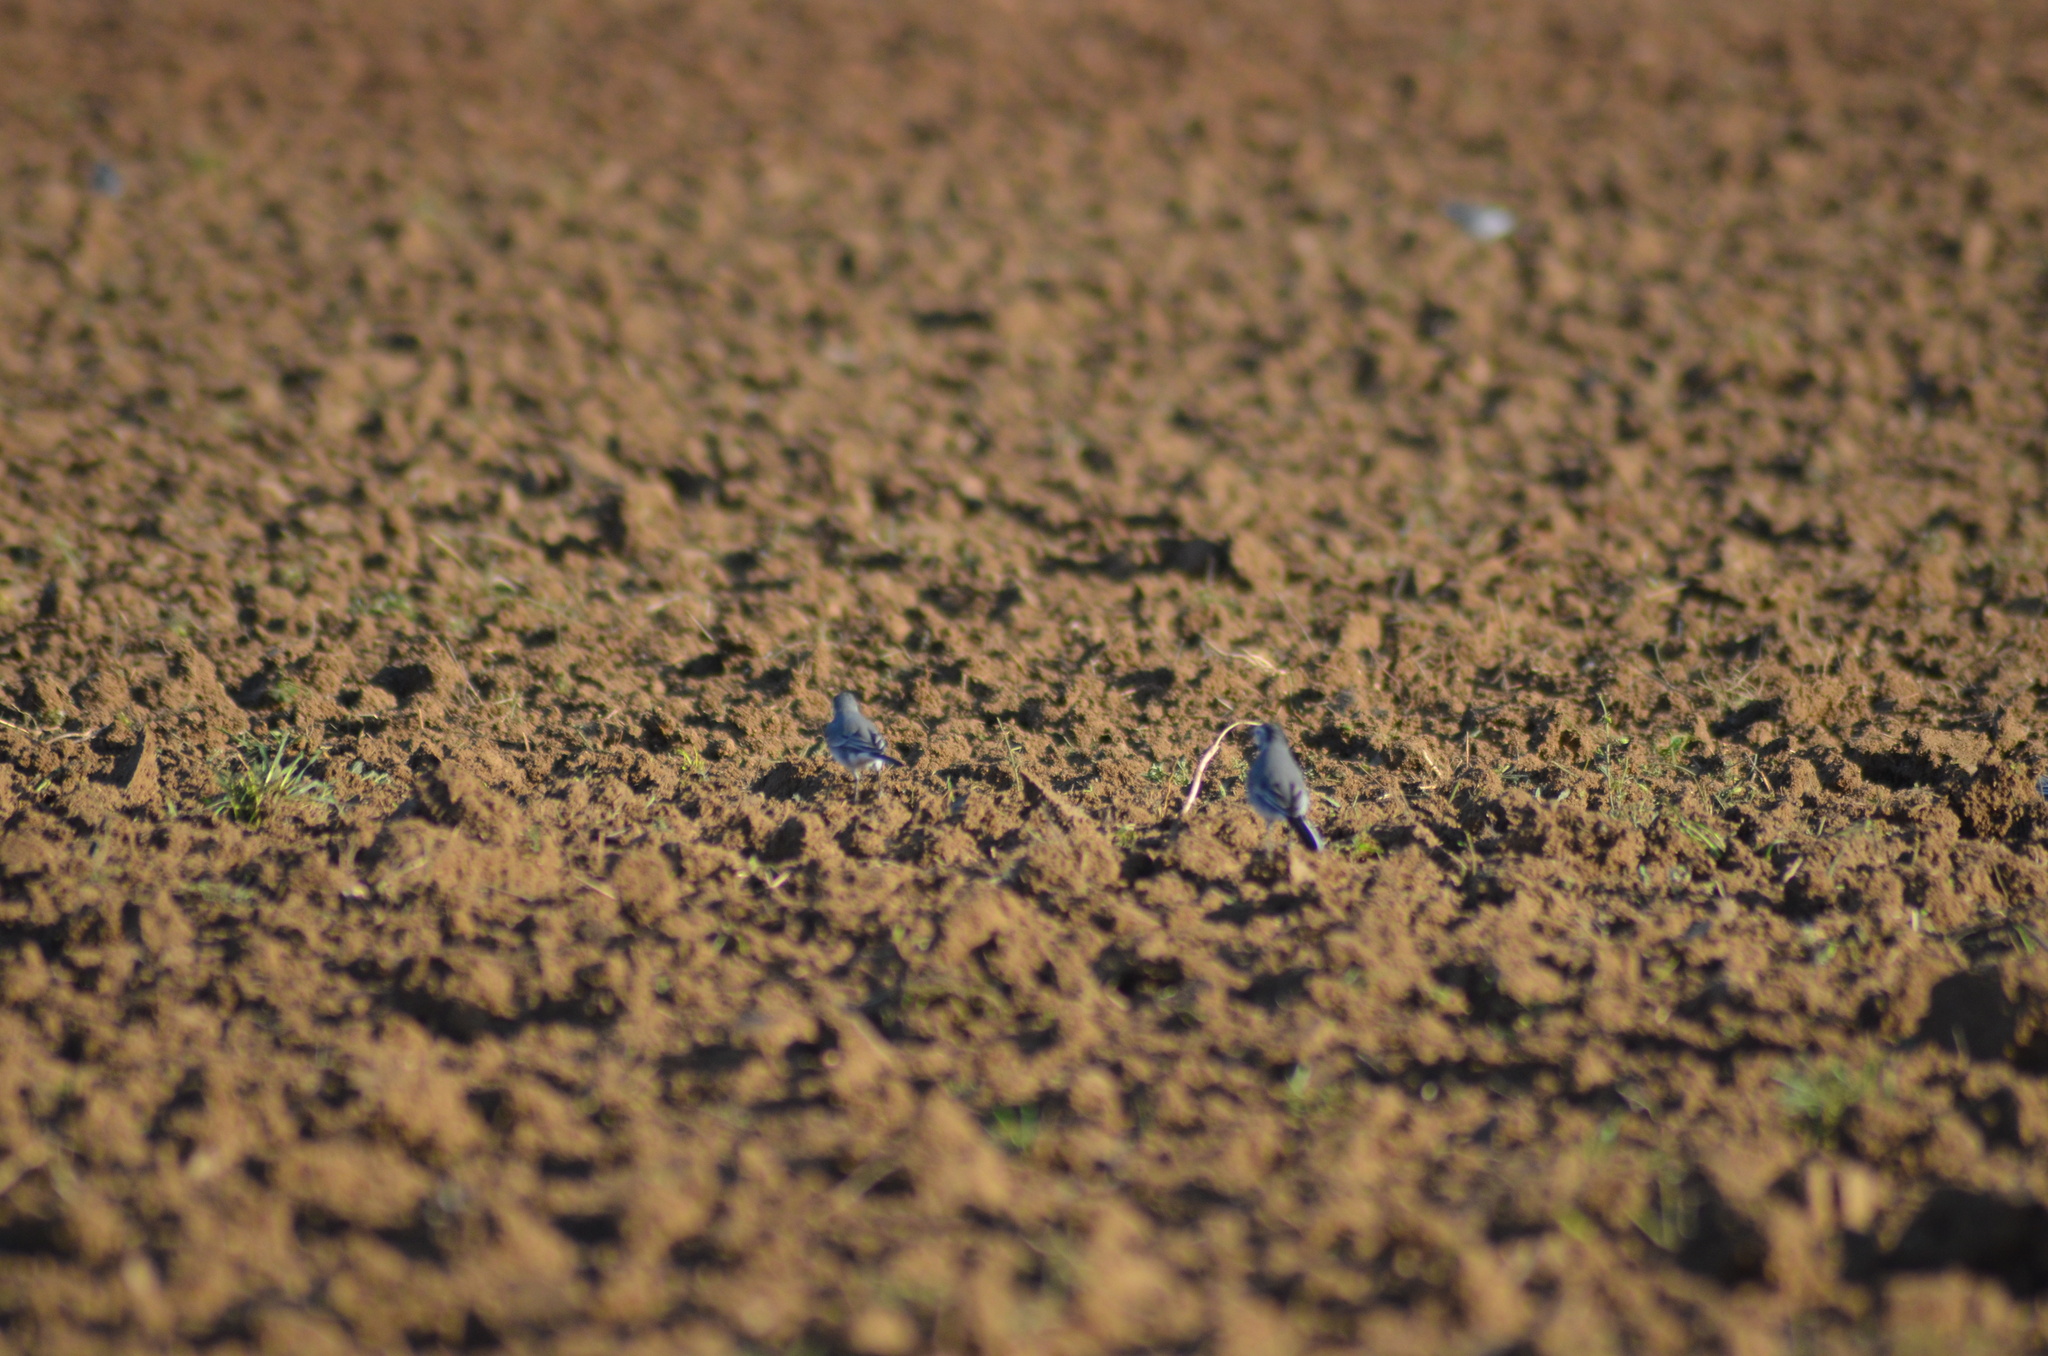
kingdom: Animalia
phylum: Chordata
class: Aves
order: Passeriformes
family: Motacillidae
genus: Motacilla
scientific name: Motacilla alba
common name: White wagtail
